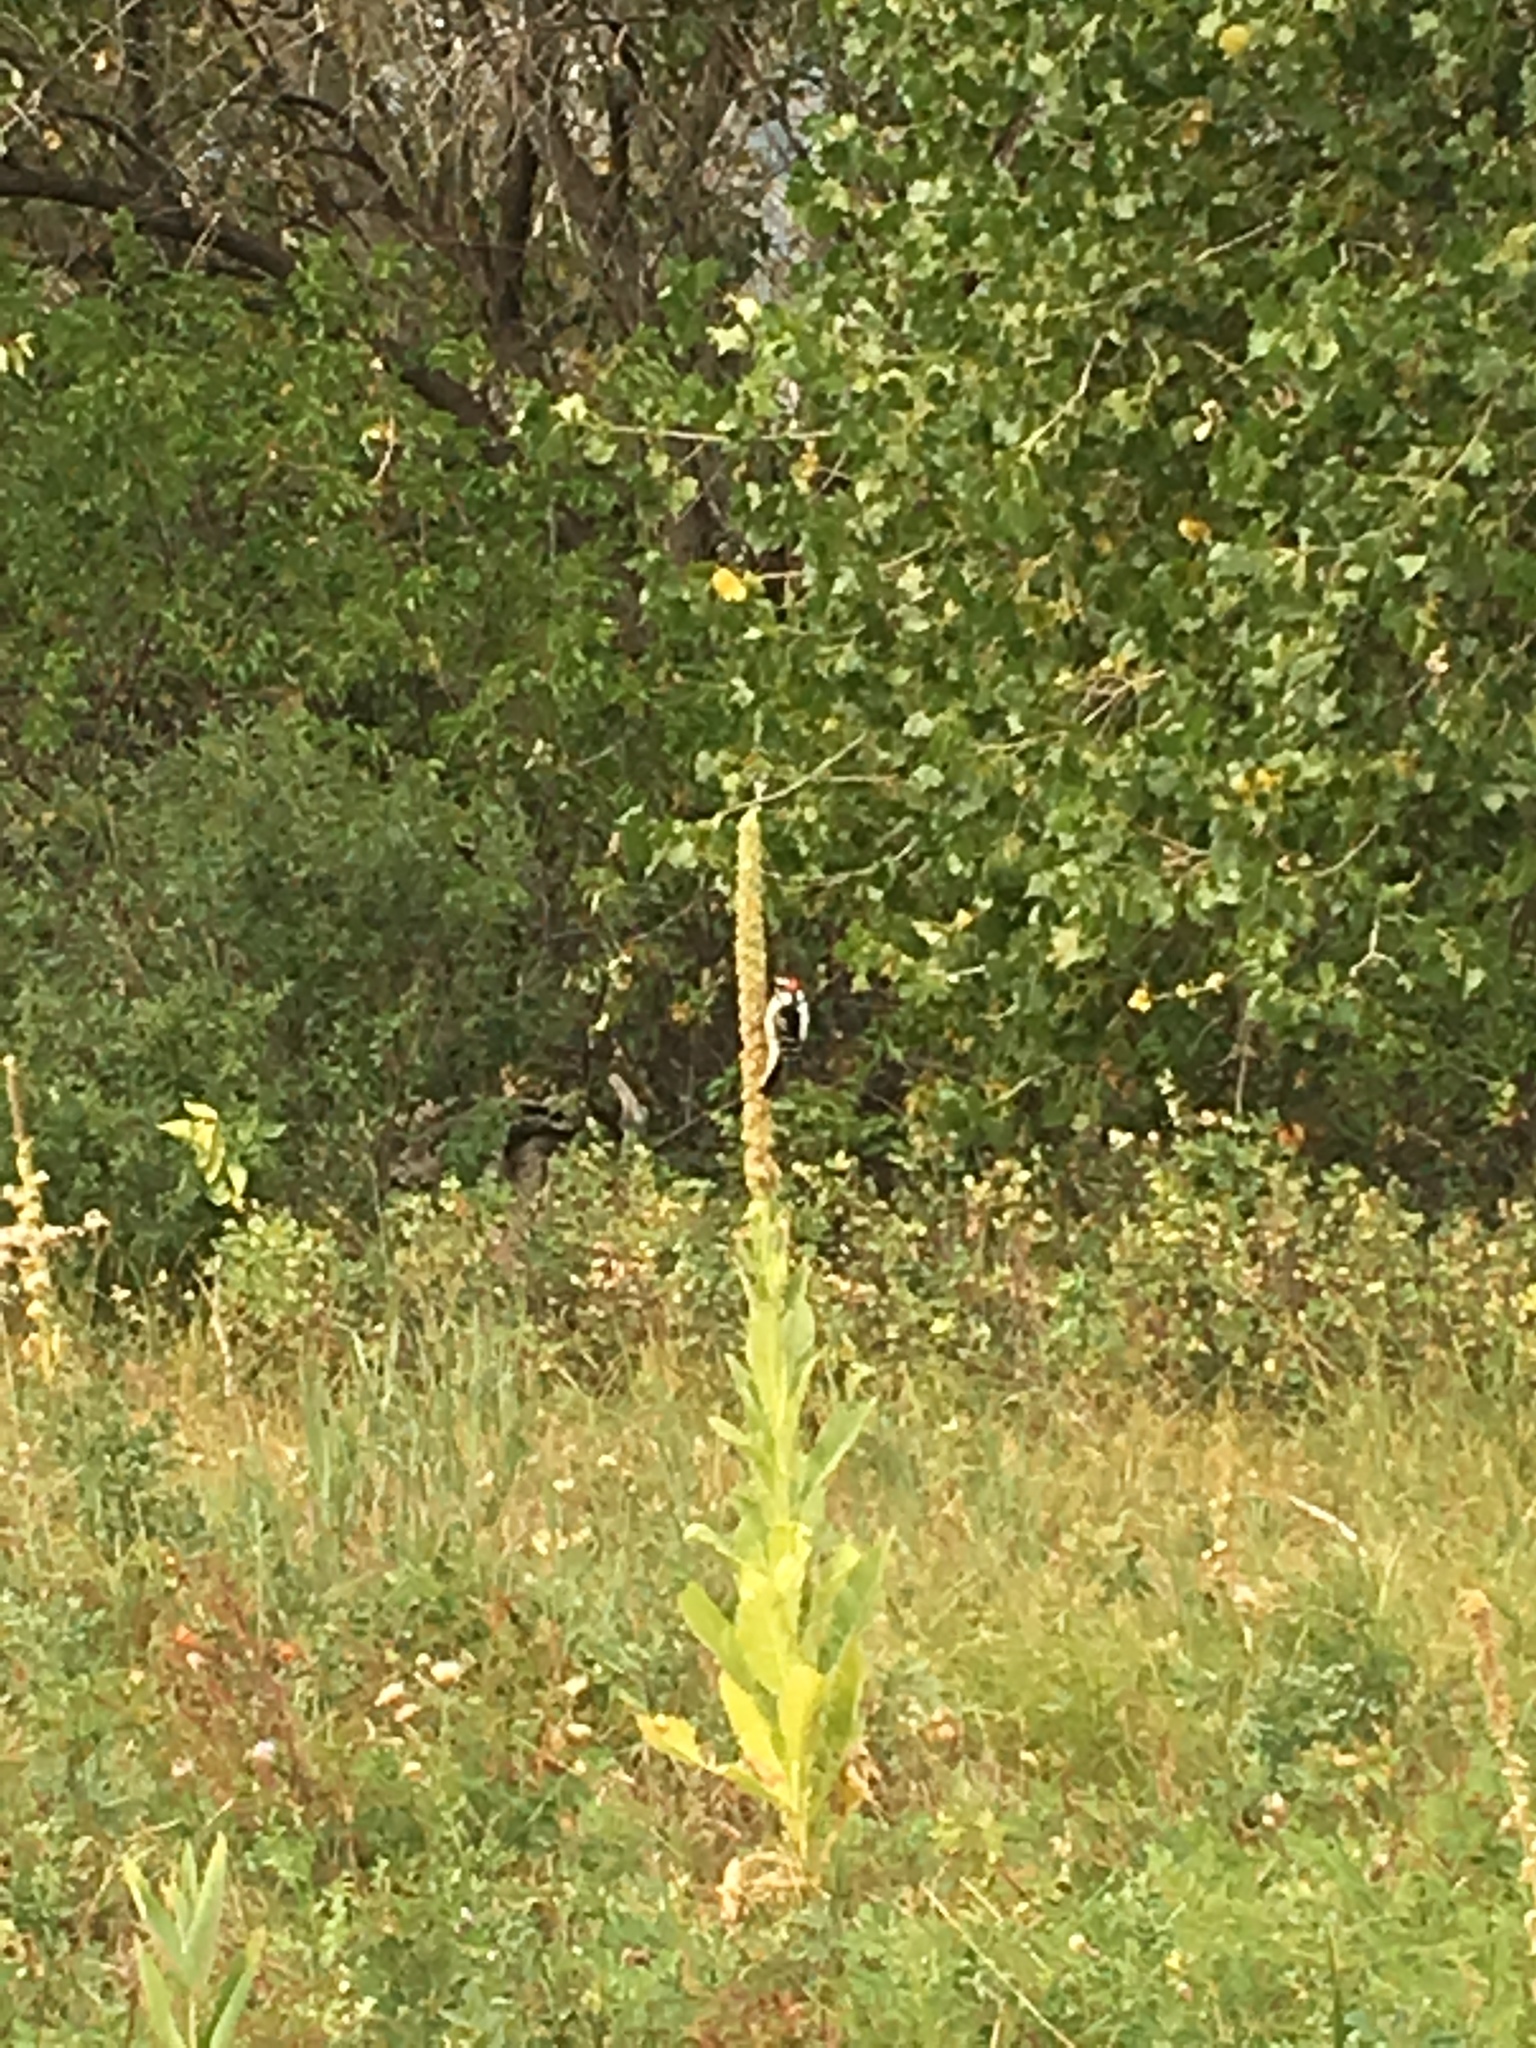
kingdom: Animalia
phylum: Chordata
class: Aves
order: Piciformes
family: Picidae
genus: Dryobates
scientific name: Dryobates pubescens
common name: Downy woodpecker
